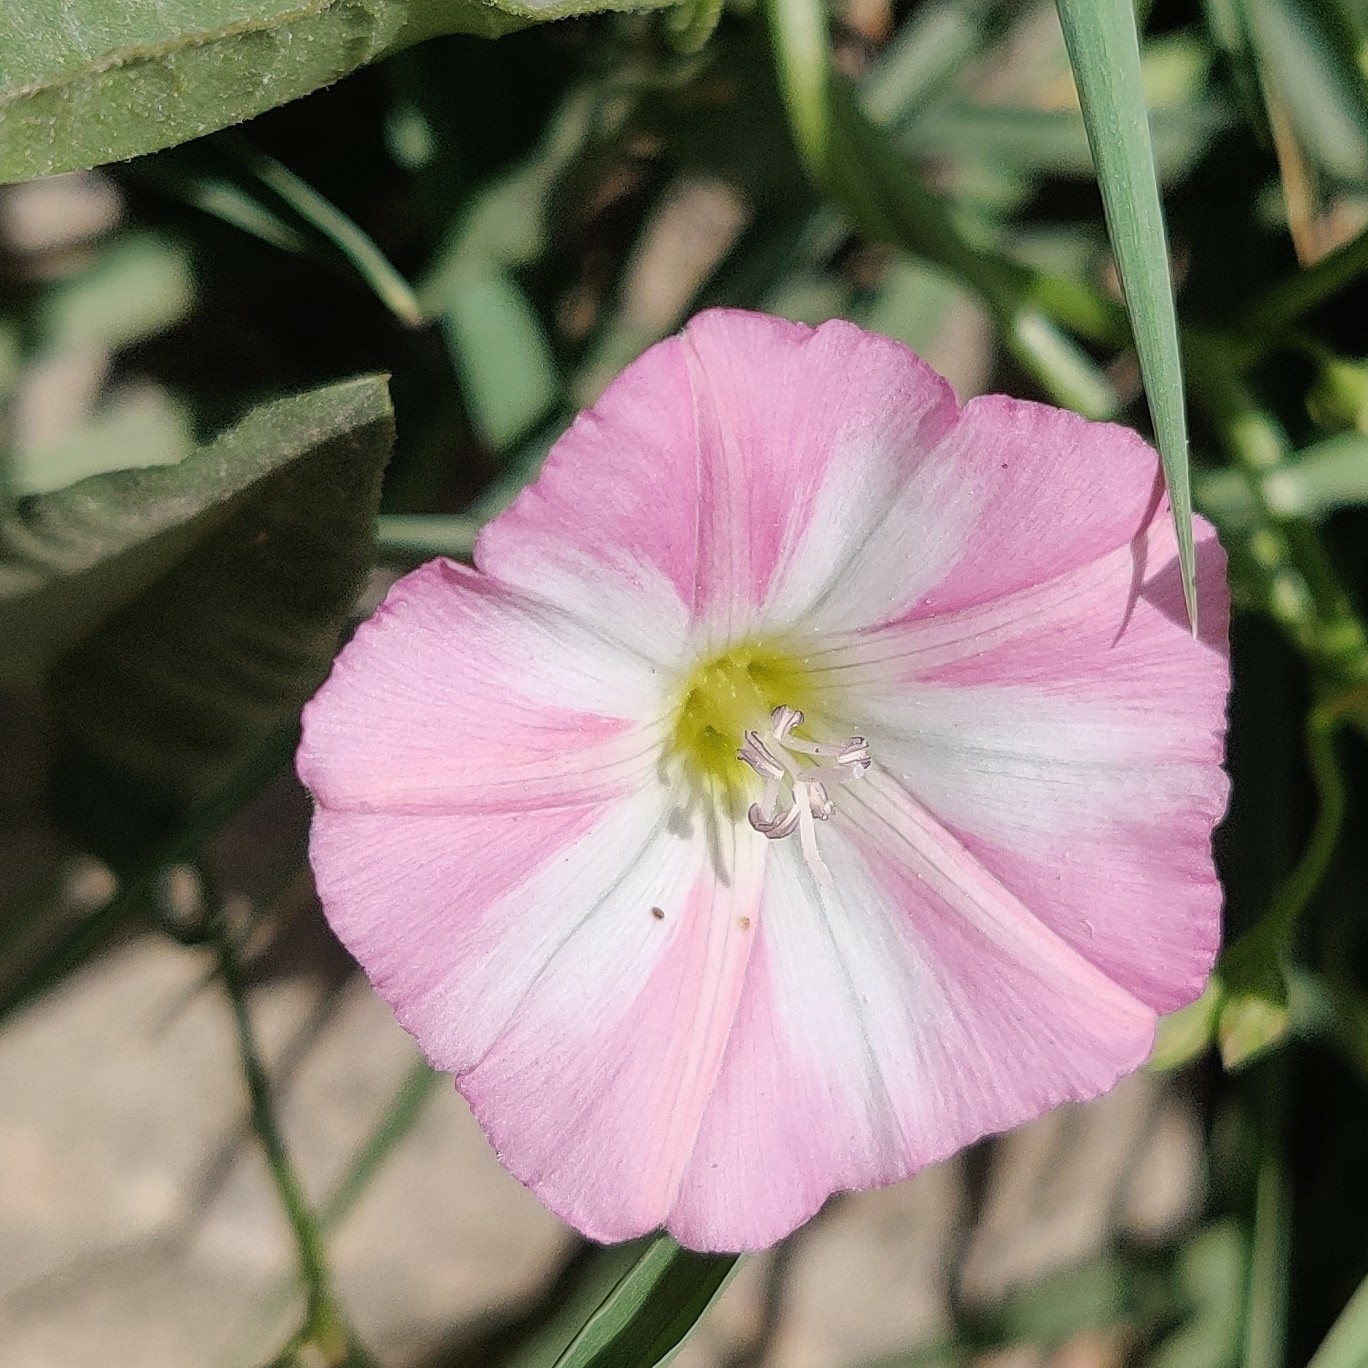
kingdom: Plantae
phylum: Tracheophyta
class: Magnoliopsida
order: Solanales
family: Convolvulaceae
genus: Convolvulus
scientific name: Convolvulus arvensis
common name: Field bindweed
